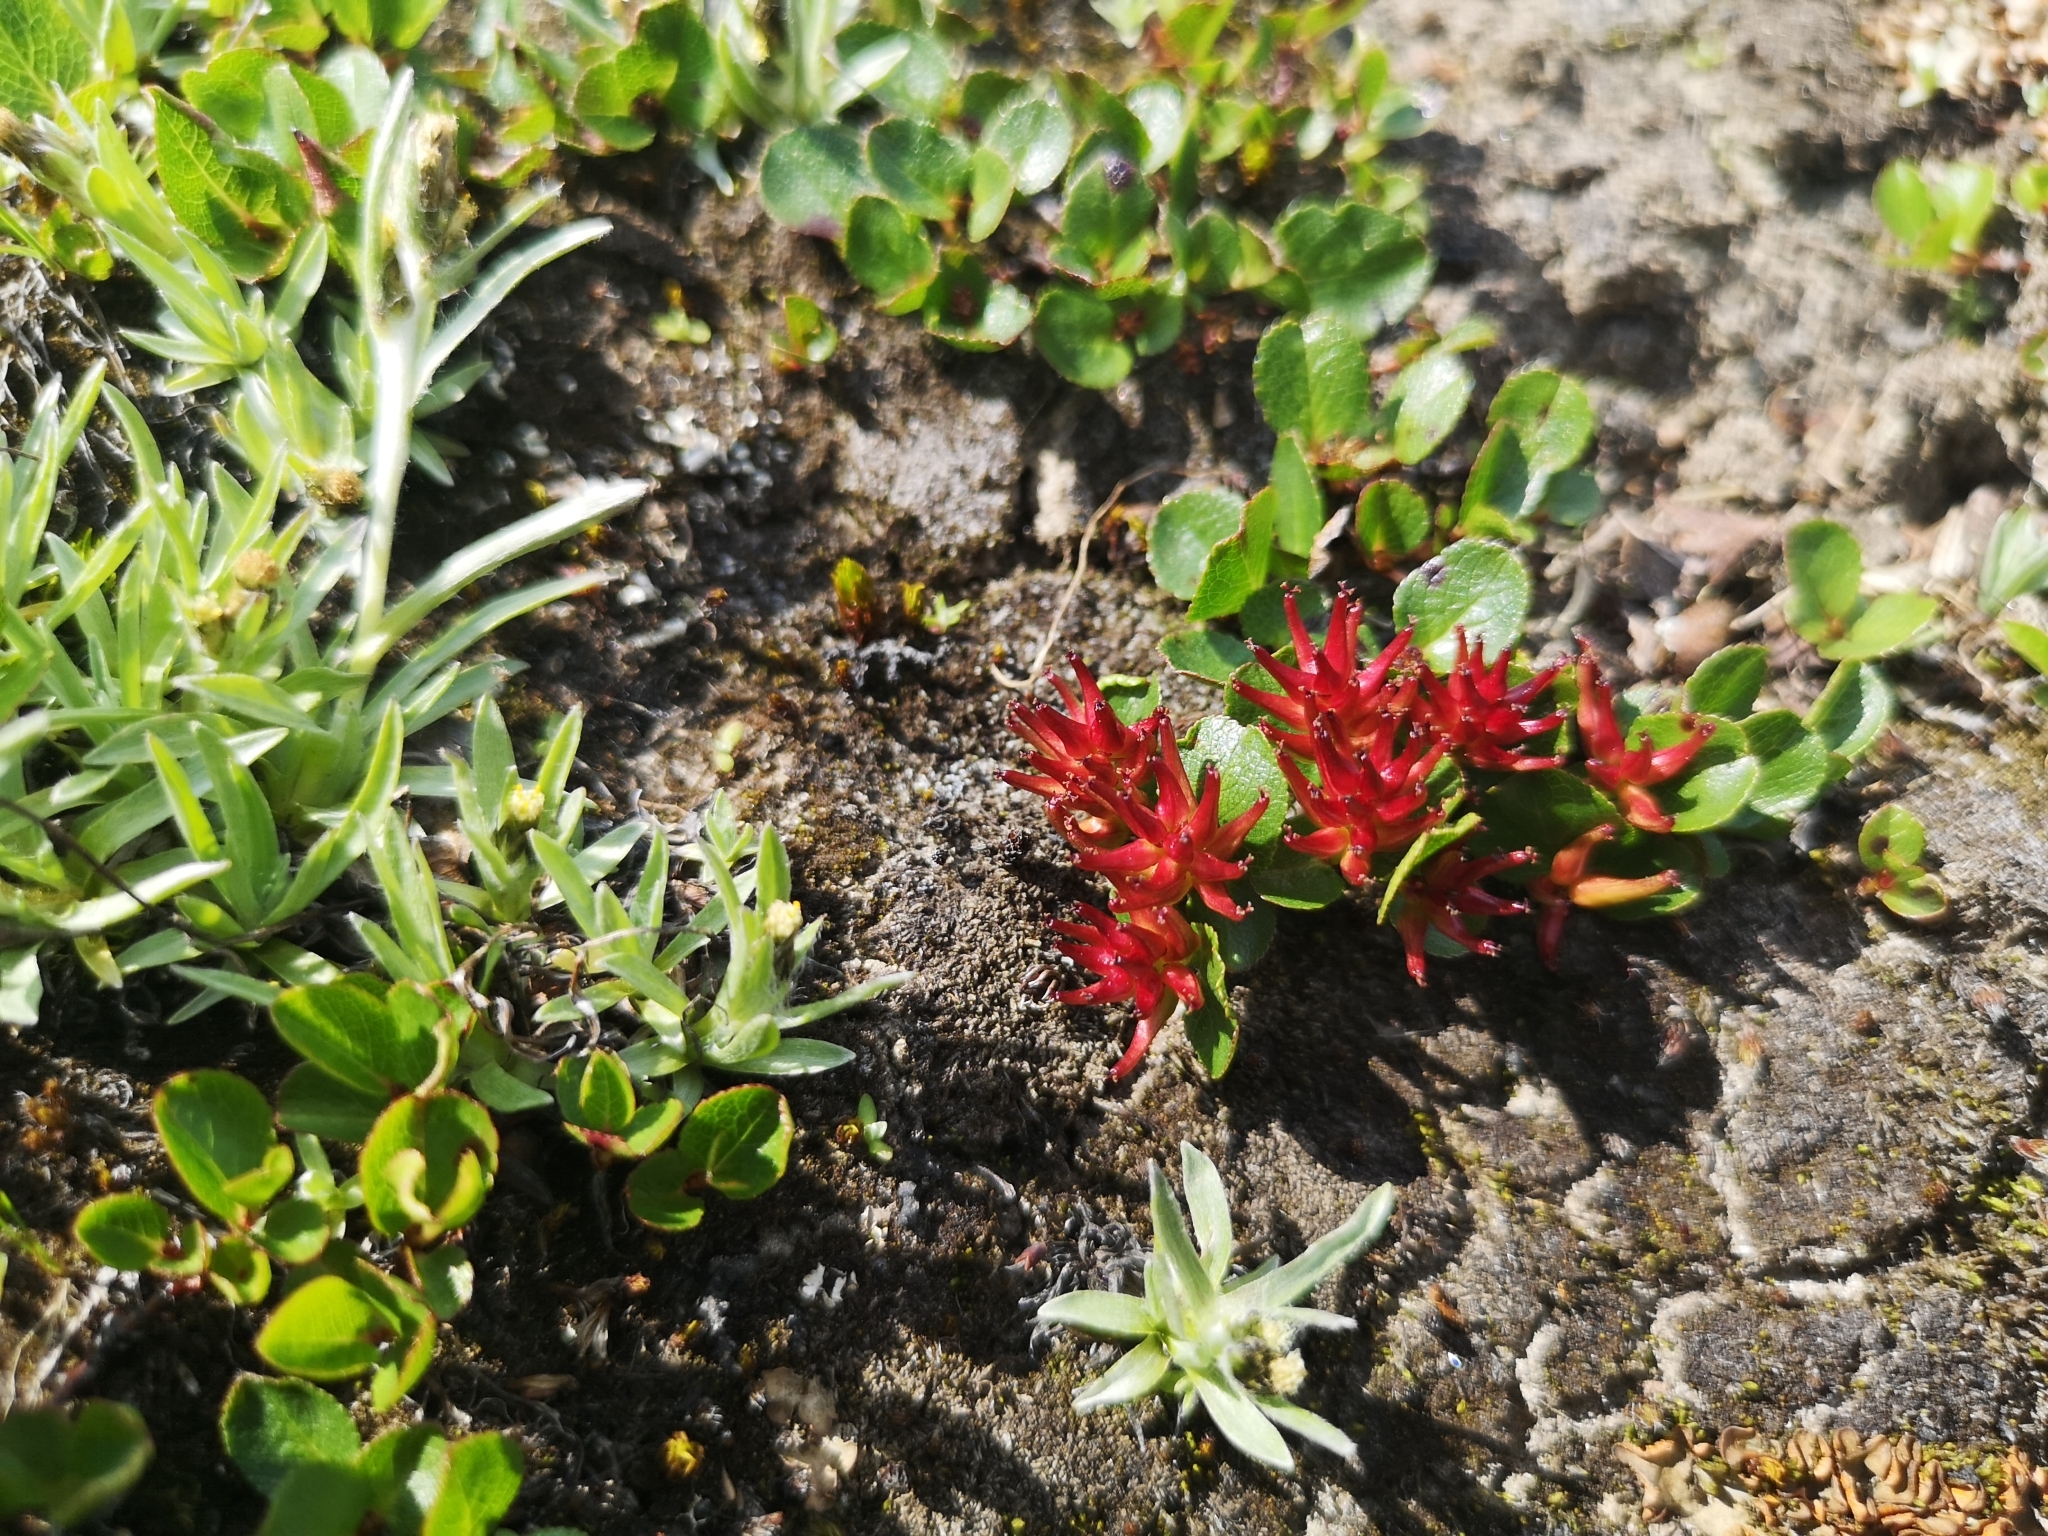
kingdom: Plantae
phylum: Tracheophyta
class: Magnoliopsida
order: Malpighiales
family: Salicaceae
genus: Salix
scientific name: Salix herbacea
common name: Dwarf willow
